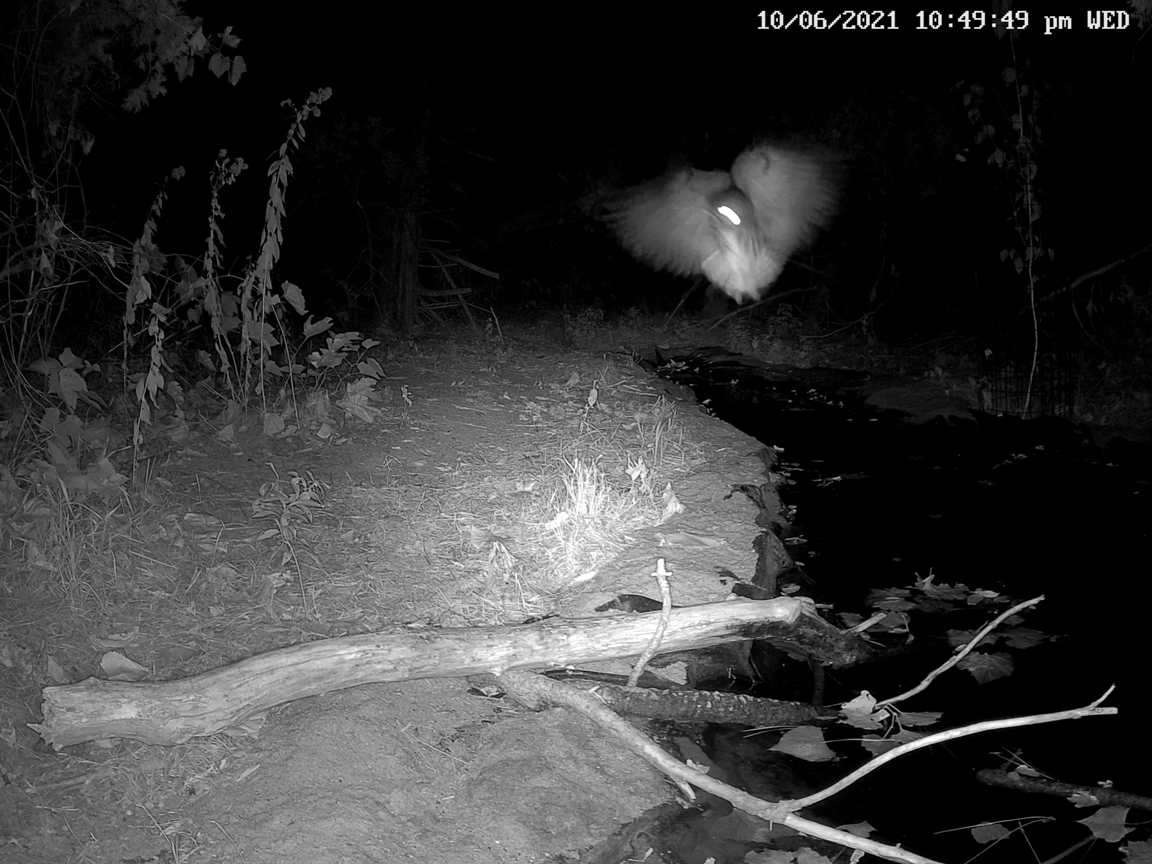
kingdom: Animalia
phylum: Chordata
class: Aves
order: Strigiformes
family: Strigidae
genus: Megascops
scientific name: Megascops asio
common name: Eastern screech-owl
